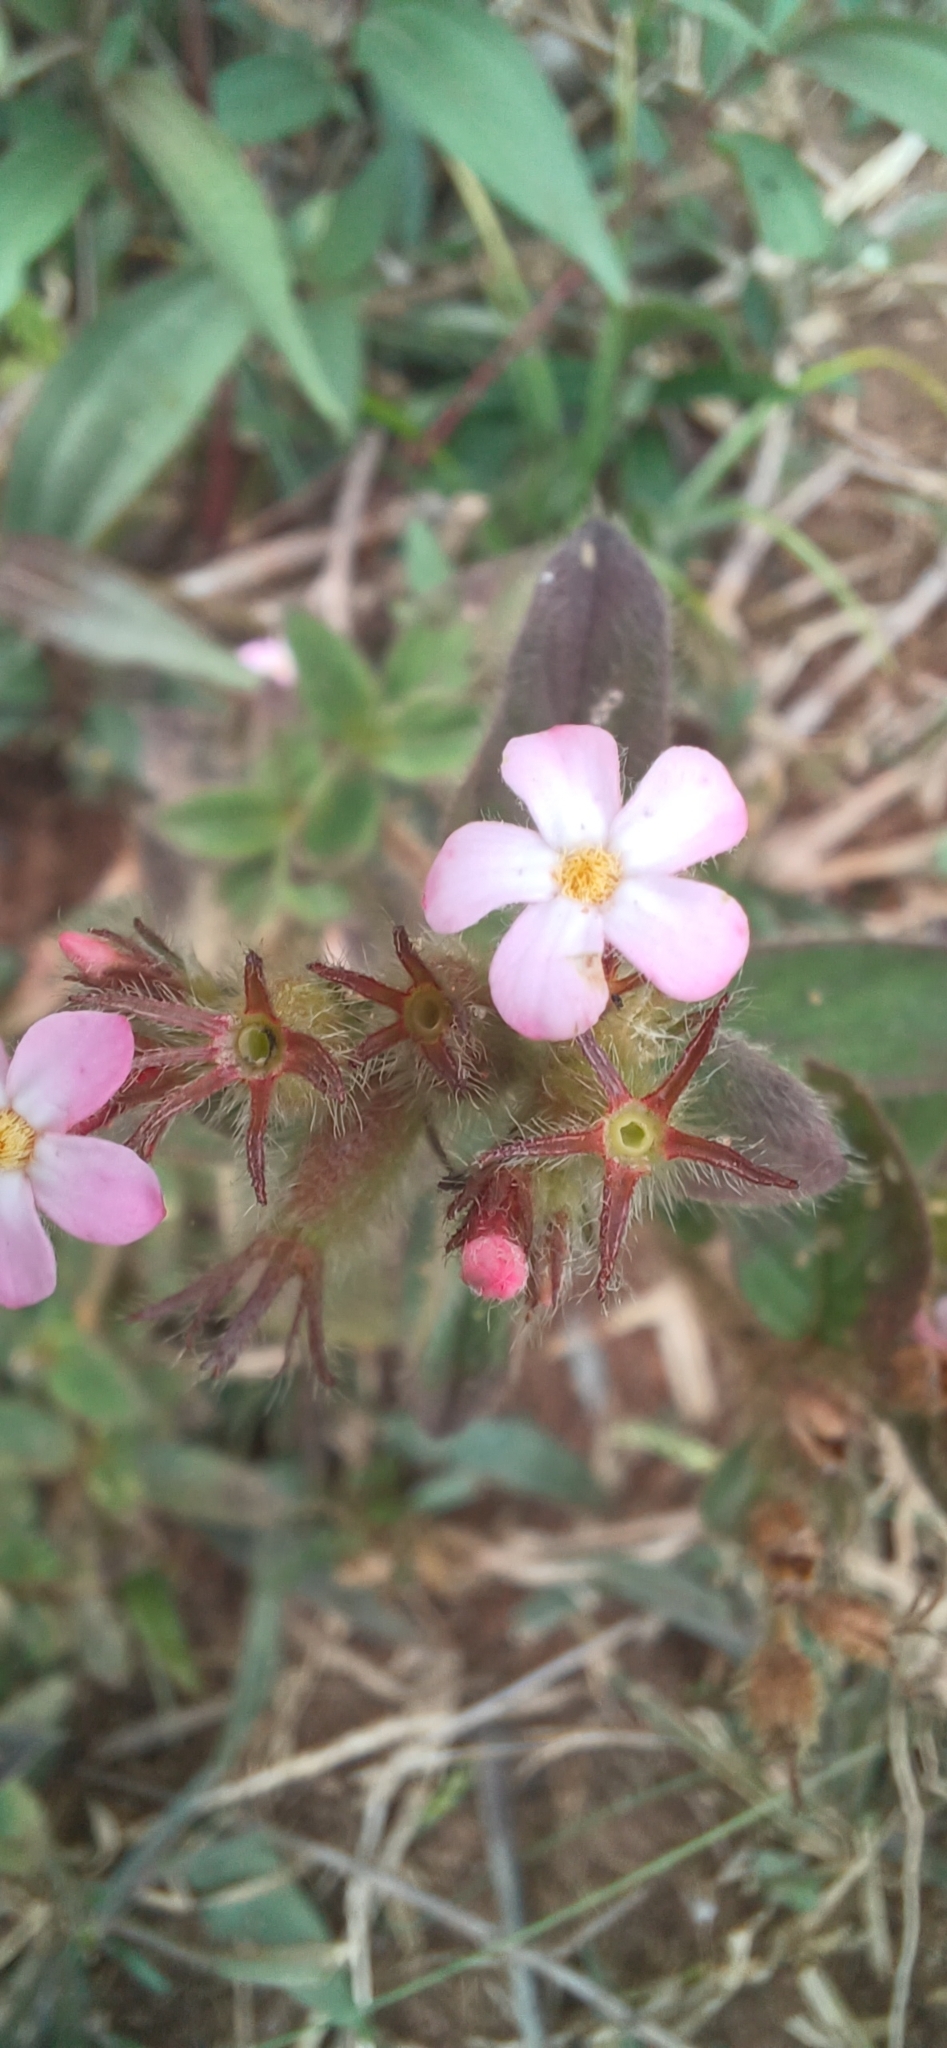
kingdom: Plantae
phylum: Tracheophyta
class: Magnoliopsida
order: Gentianales
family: Rubiaceae
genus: Sipanea
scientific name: Sipanea hispida
